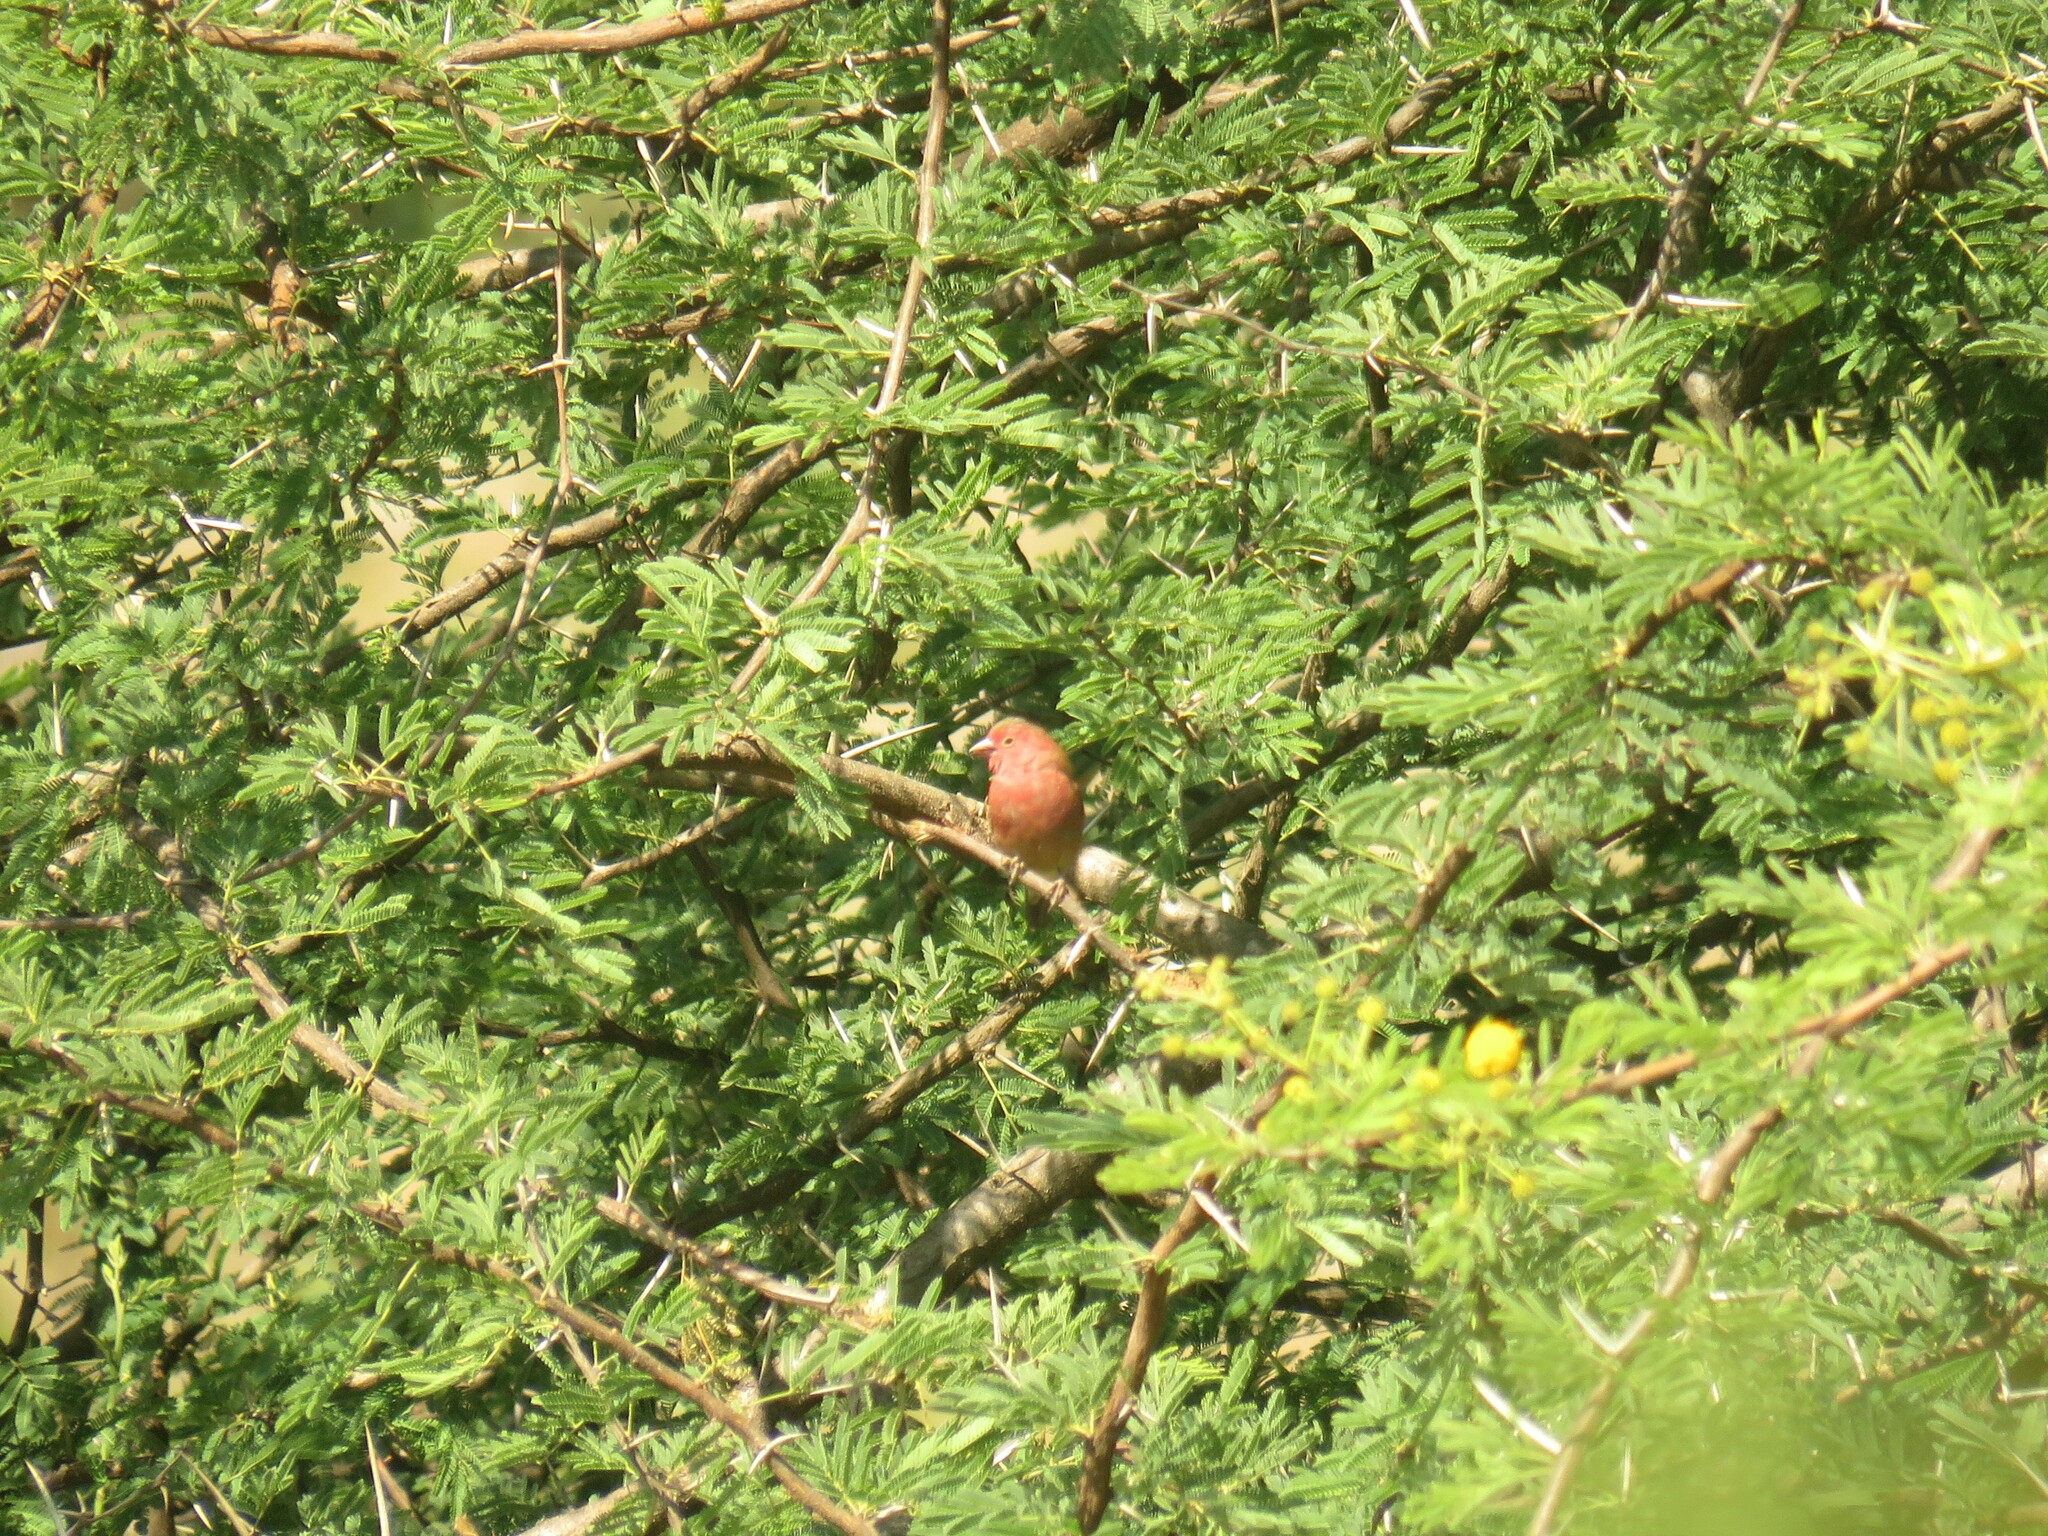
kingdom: Animalia
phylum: Chordata
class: Aves
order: Passeriformes
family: Estrildidae
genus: Lagonosticta
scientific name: Lagonosticta senegala
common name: Red-billed firefinch
